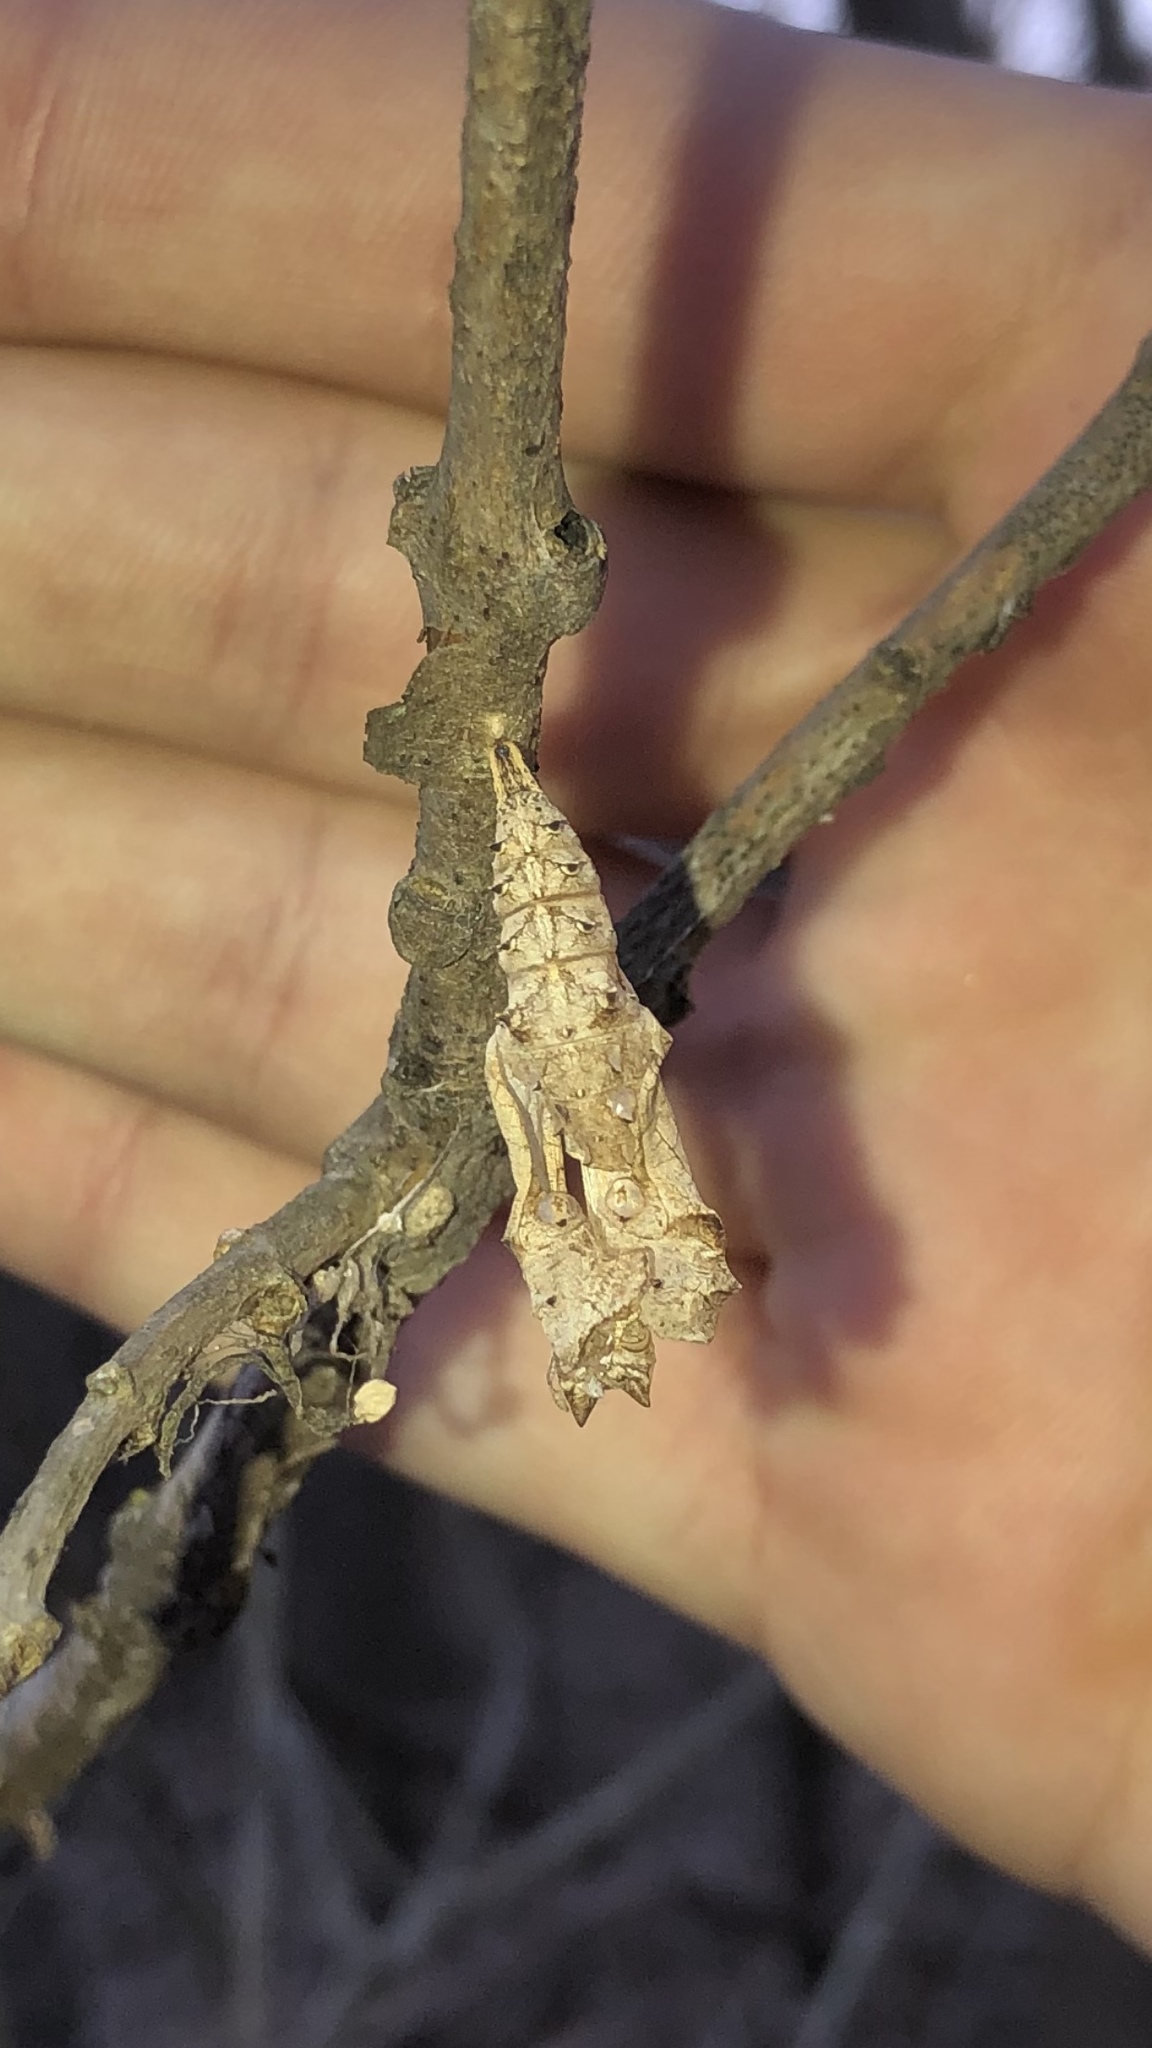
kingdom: Animalia
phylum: Arthropoda
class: Insecta
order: Lepidoptera
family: Nymphalidae
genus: Dione
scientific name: Dione vanillae
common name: Gulf fritillary
